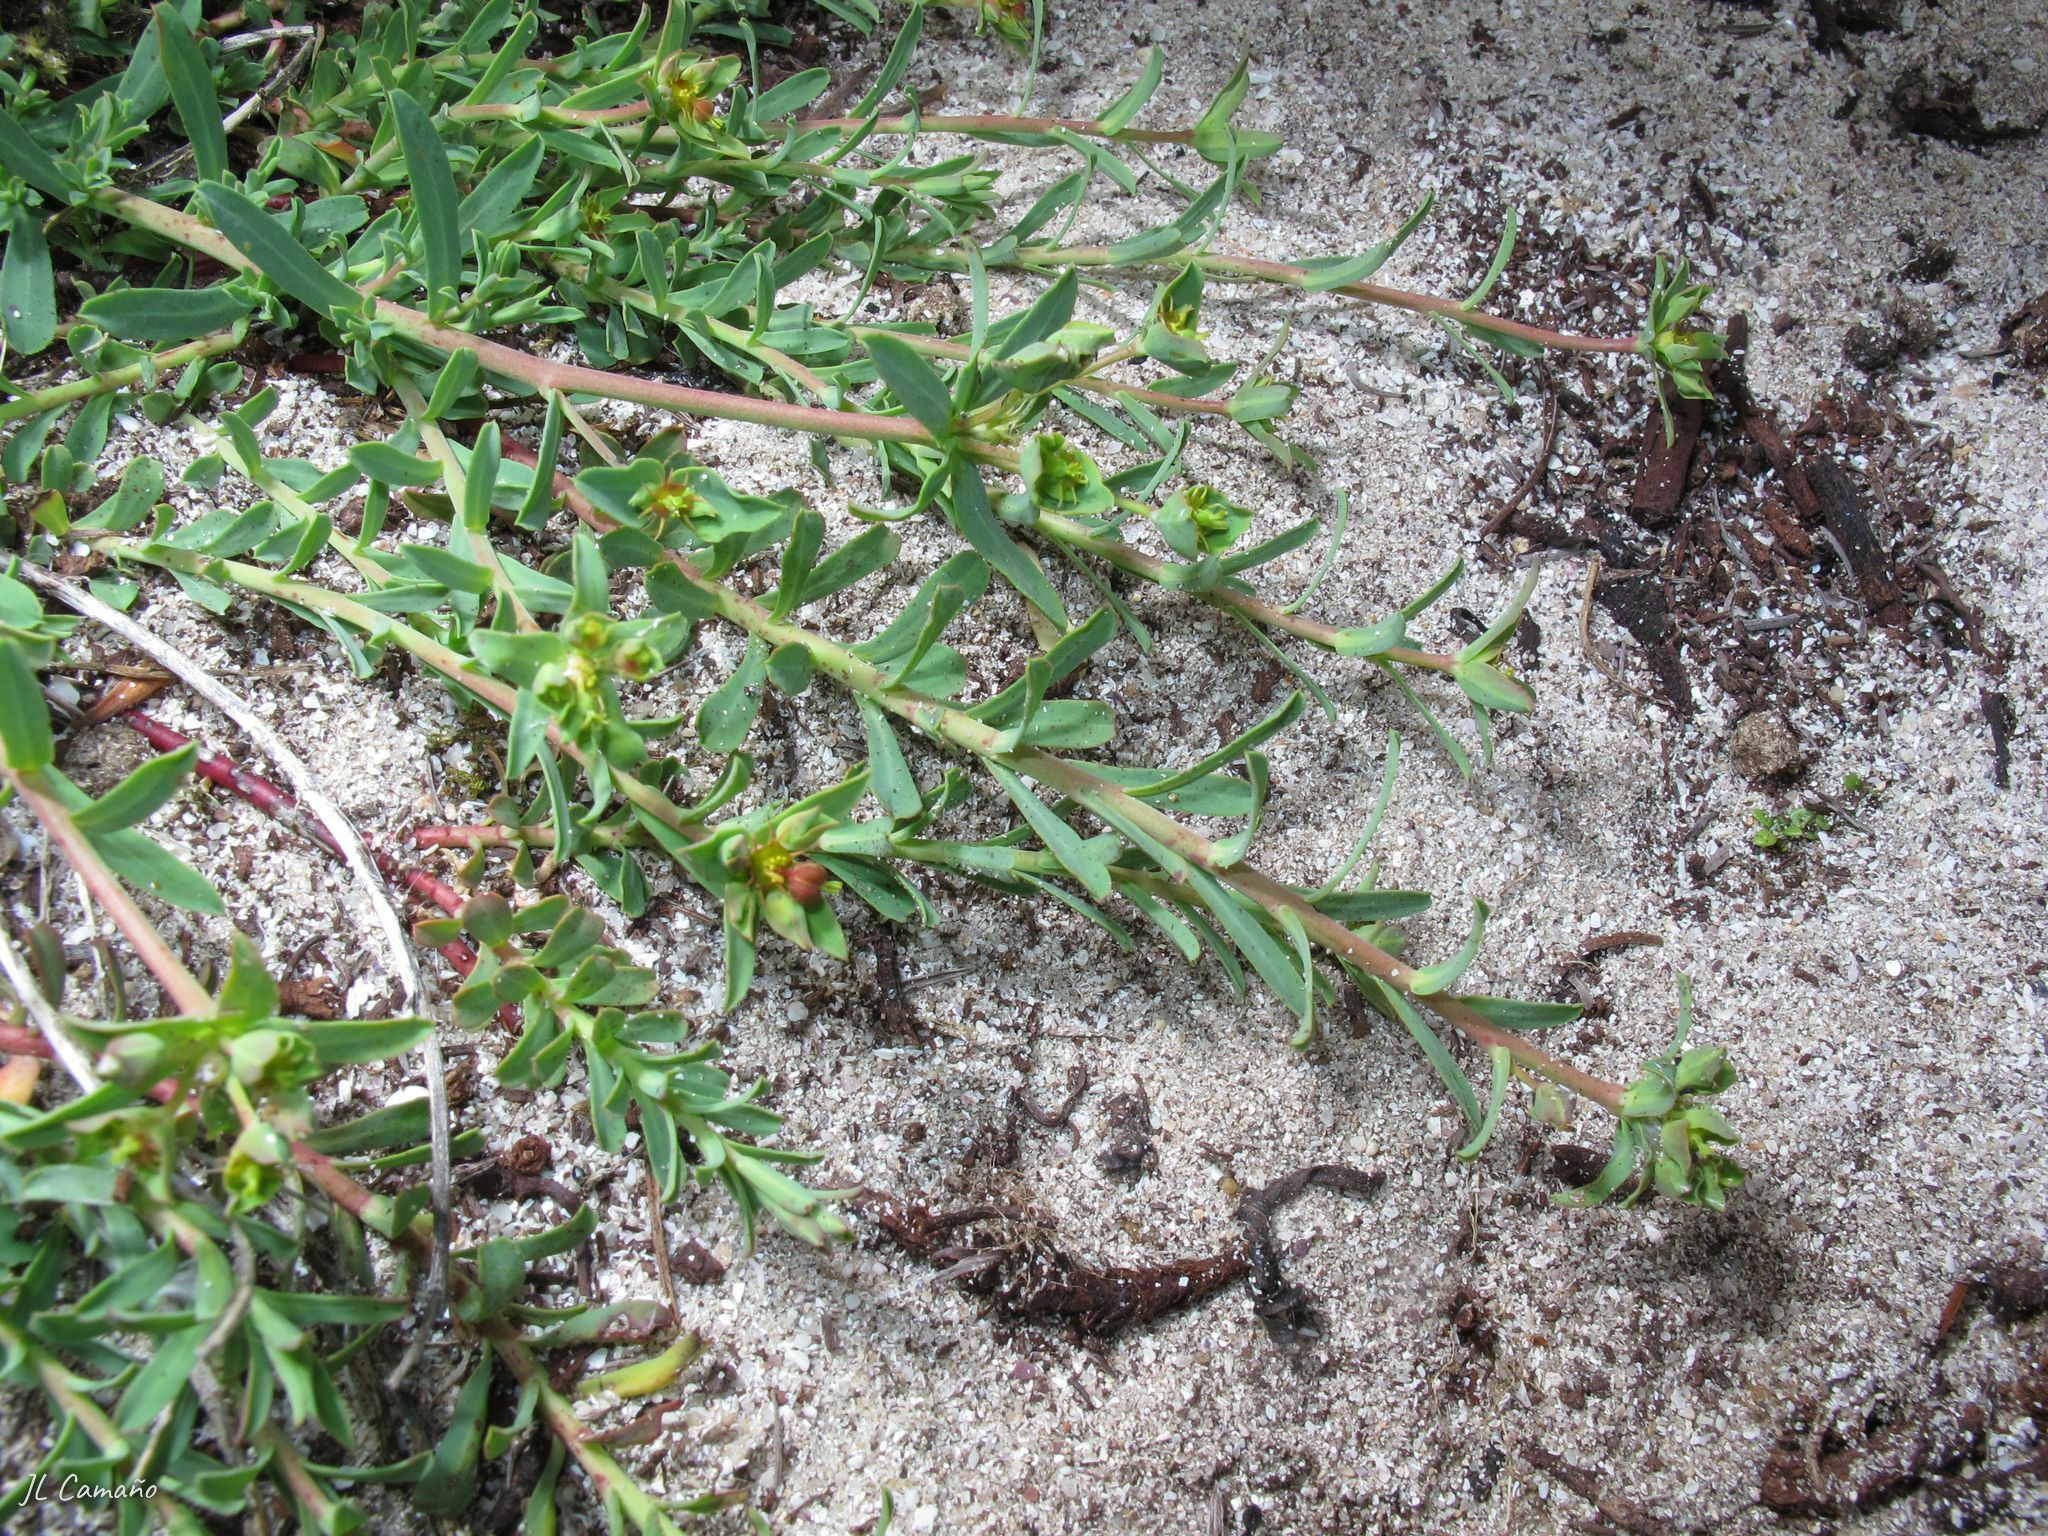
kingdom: Plantae
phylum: Tracheophyta
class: Magnoliopsida
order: Malpighiales
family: Euphorbiaceae
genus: Euphorbia
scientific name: Euphorbia terracina
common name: Geraldton carnation weed
